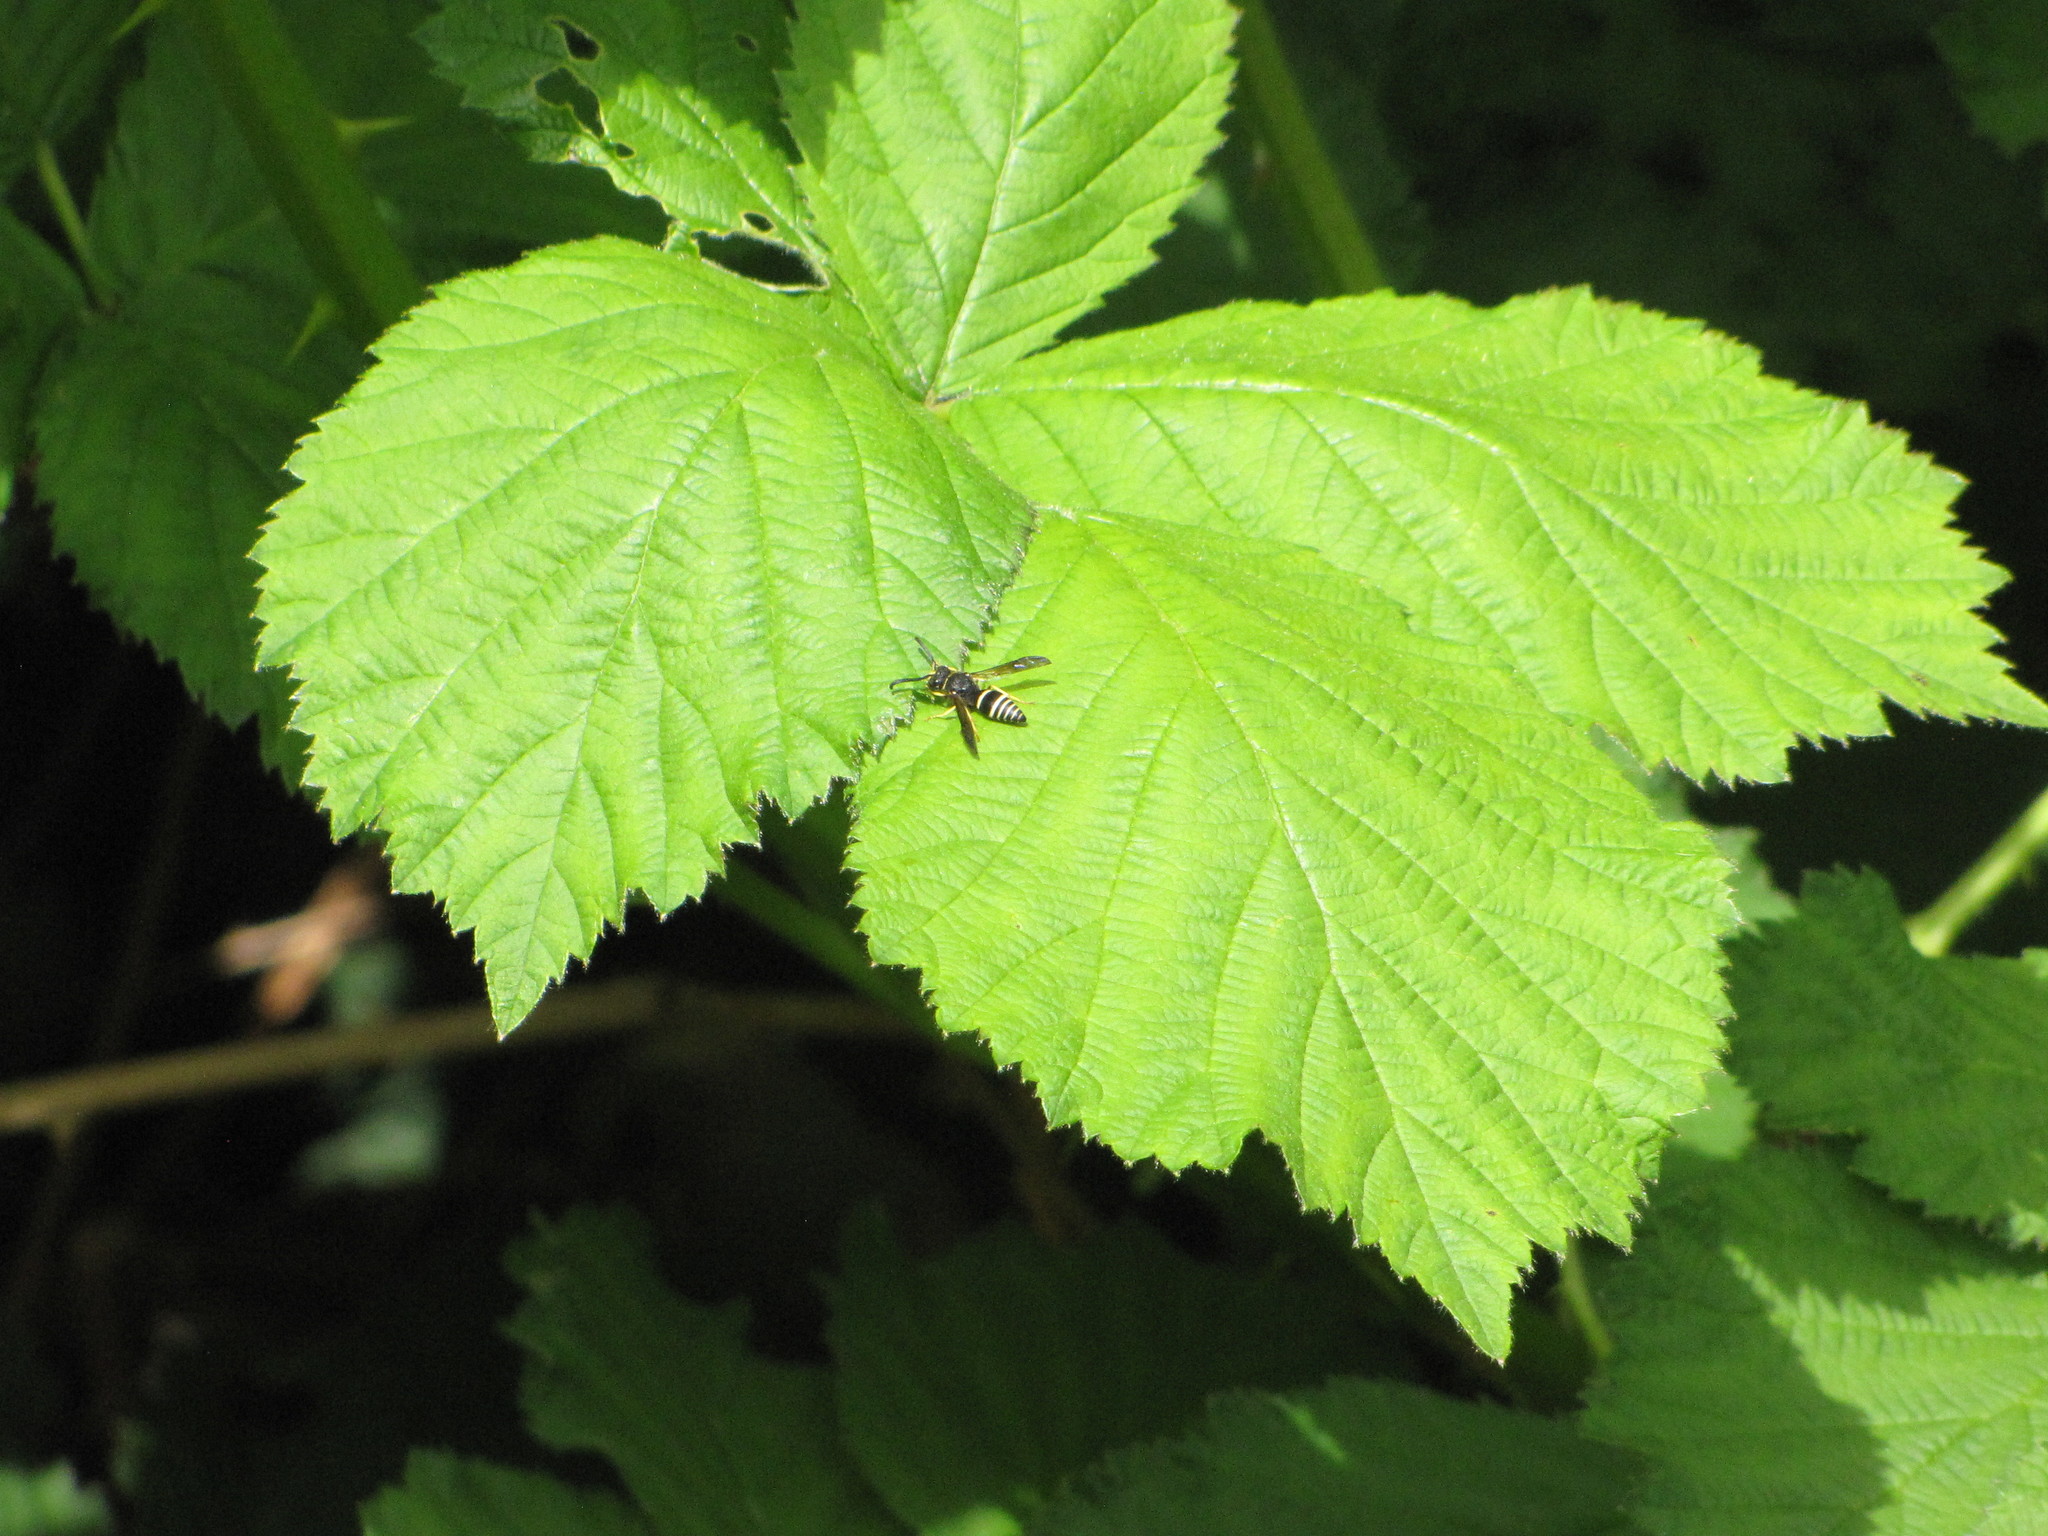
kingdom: Animalia
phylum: Arthropoda
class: Insecta
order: Hymenoptera
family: Vespidae
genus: Ancistrocerus
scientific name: Ancistrocerus
